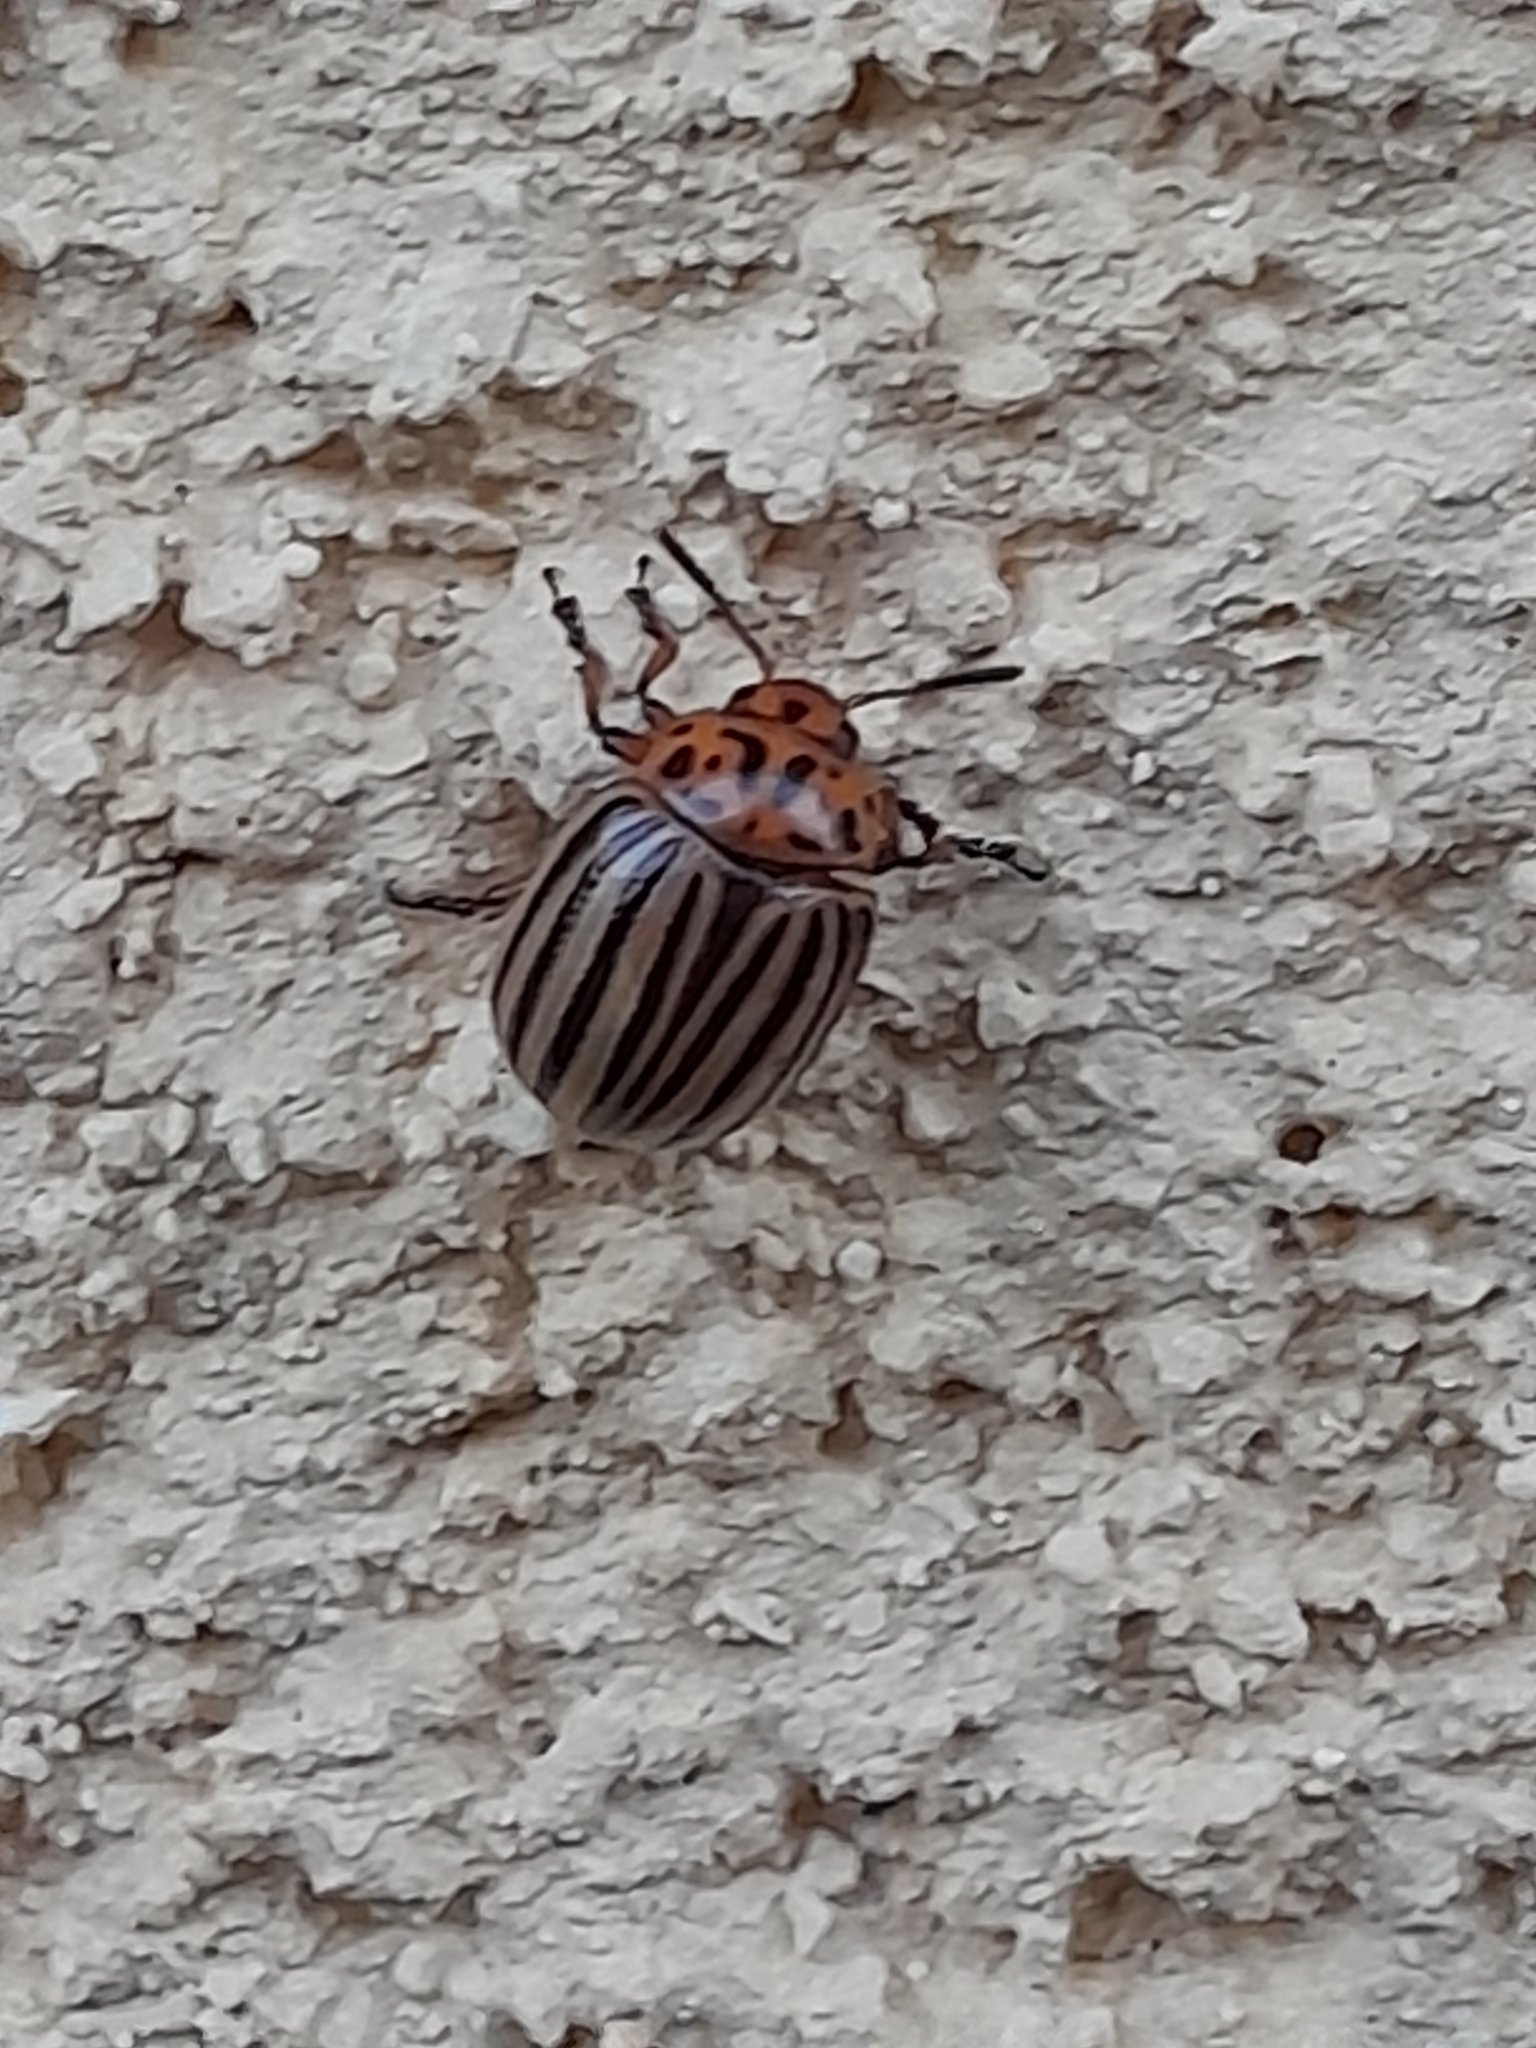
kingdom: Animalia
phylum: Arthropoda
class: Insecta
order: Coleoptera
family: Chrysomelidae
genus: Leptinotarsa
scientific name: Leptinotarsa decemlineata
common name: Colorado potato beetle
